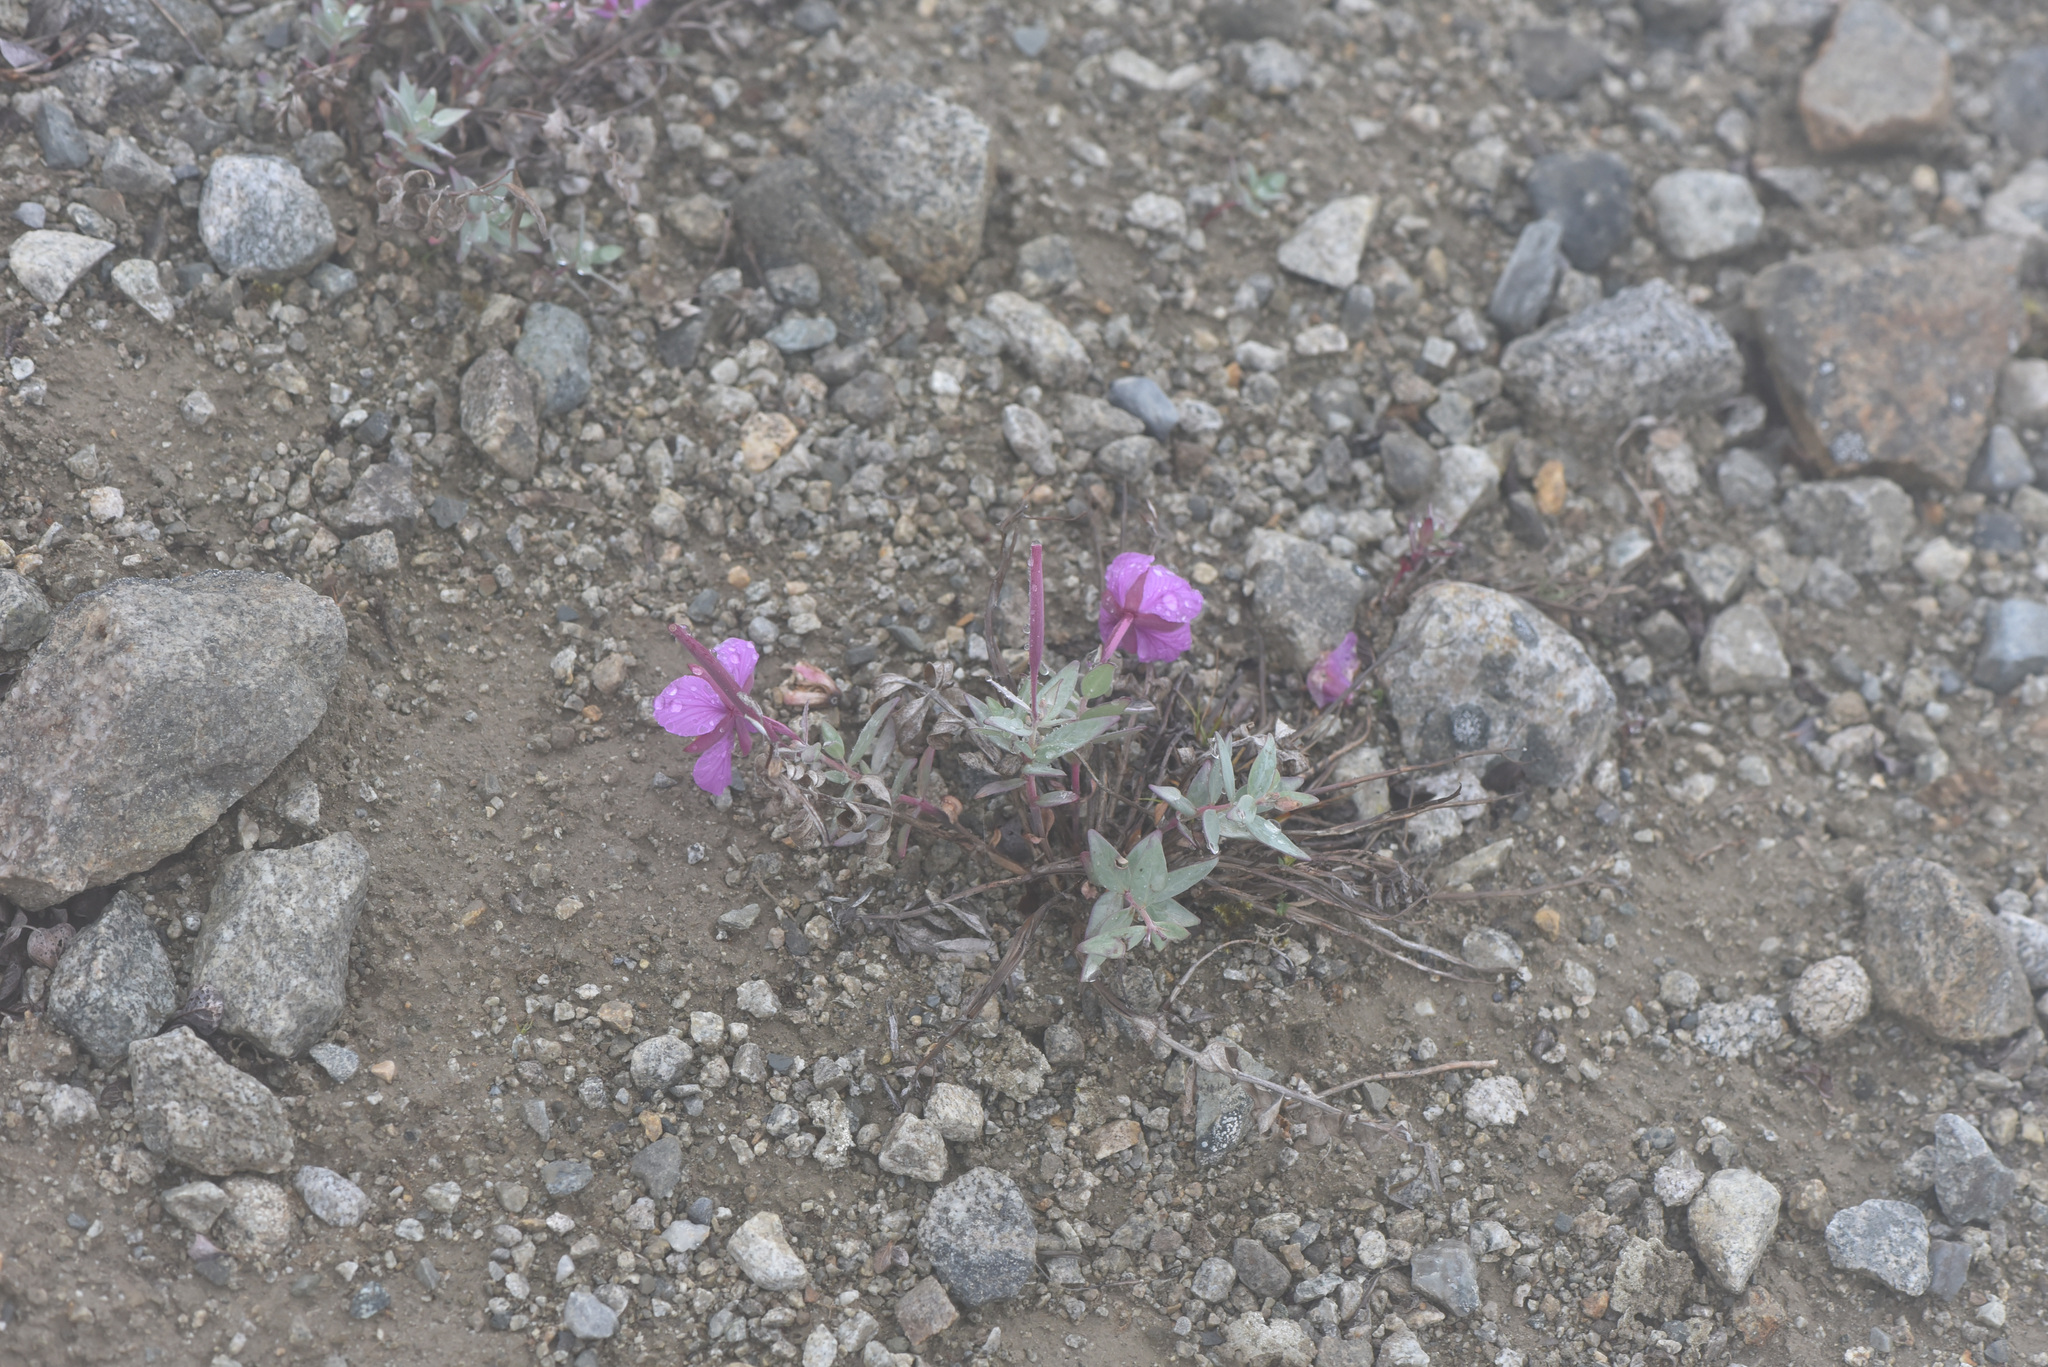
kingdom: Plantae
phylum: Tracheophyta
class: Magnoliopsida
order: Myrtales
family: Onagraceae
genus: Chamaenerion
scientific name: Chamaenerion latifolium
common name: Dwarf fireweed
